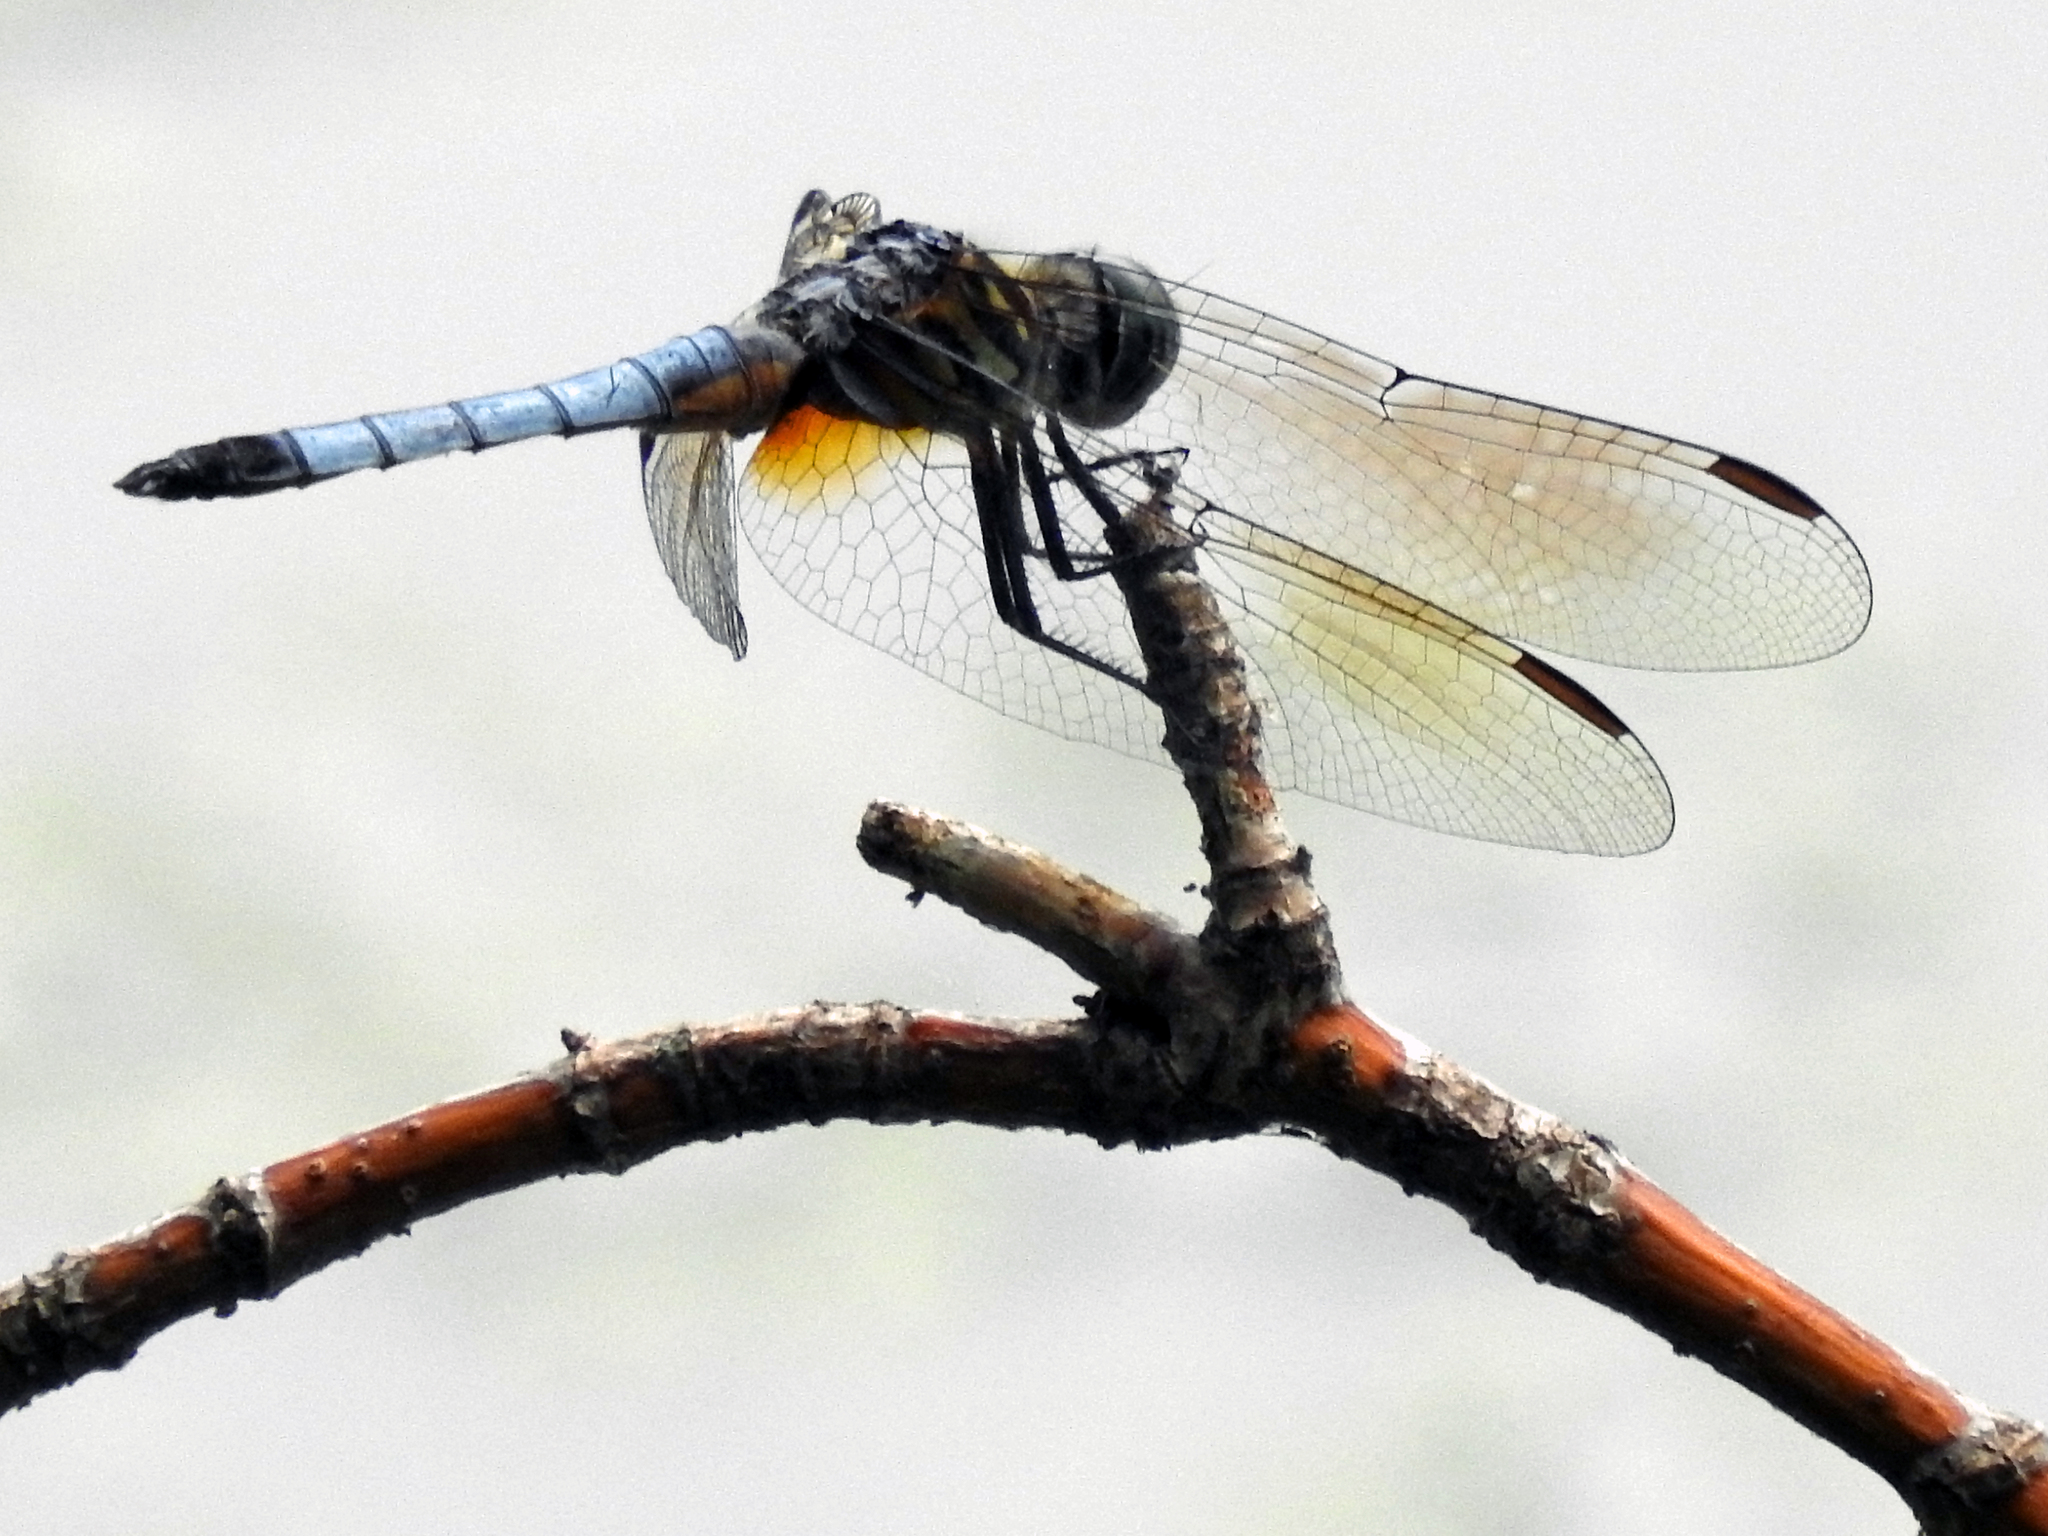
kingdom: Animalia
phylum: Arthropoda
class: Insecta
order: Odonata
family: Libellulidae
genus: Pachydiplax
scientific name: Pachydiplax longipennis
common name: Blue dasher
